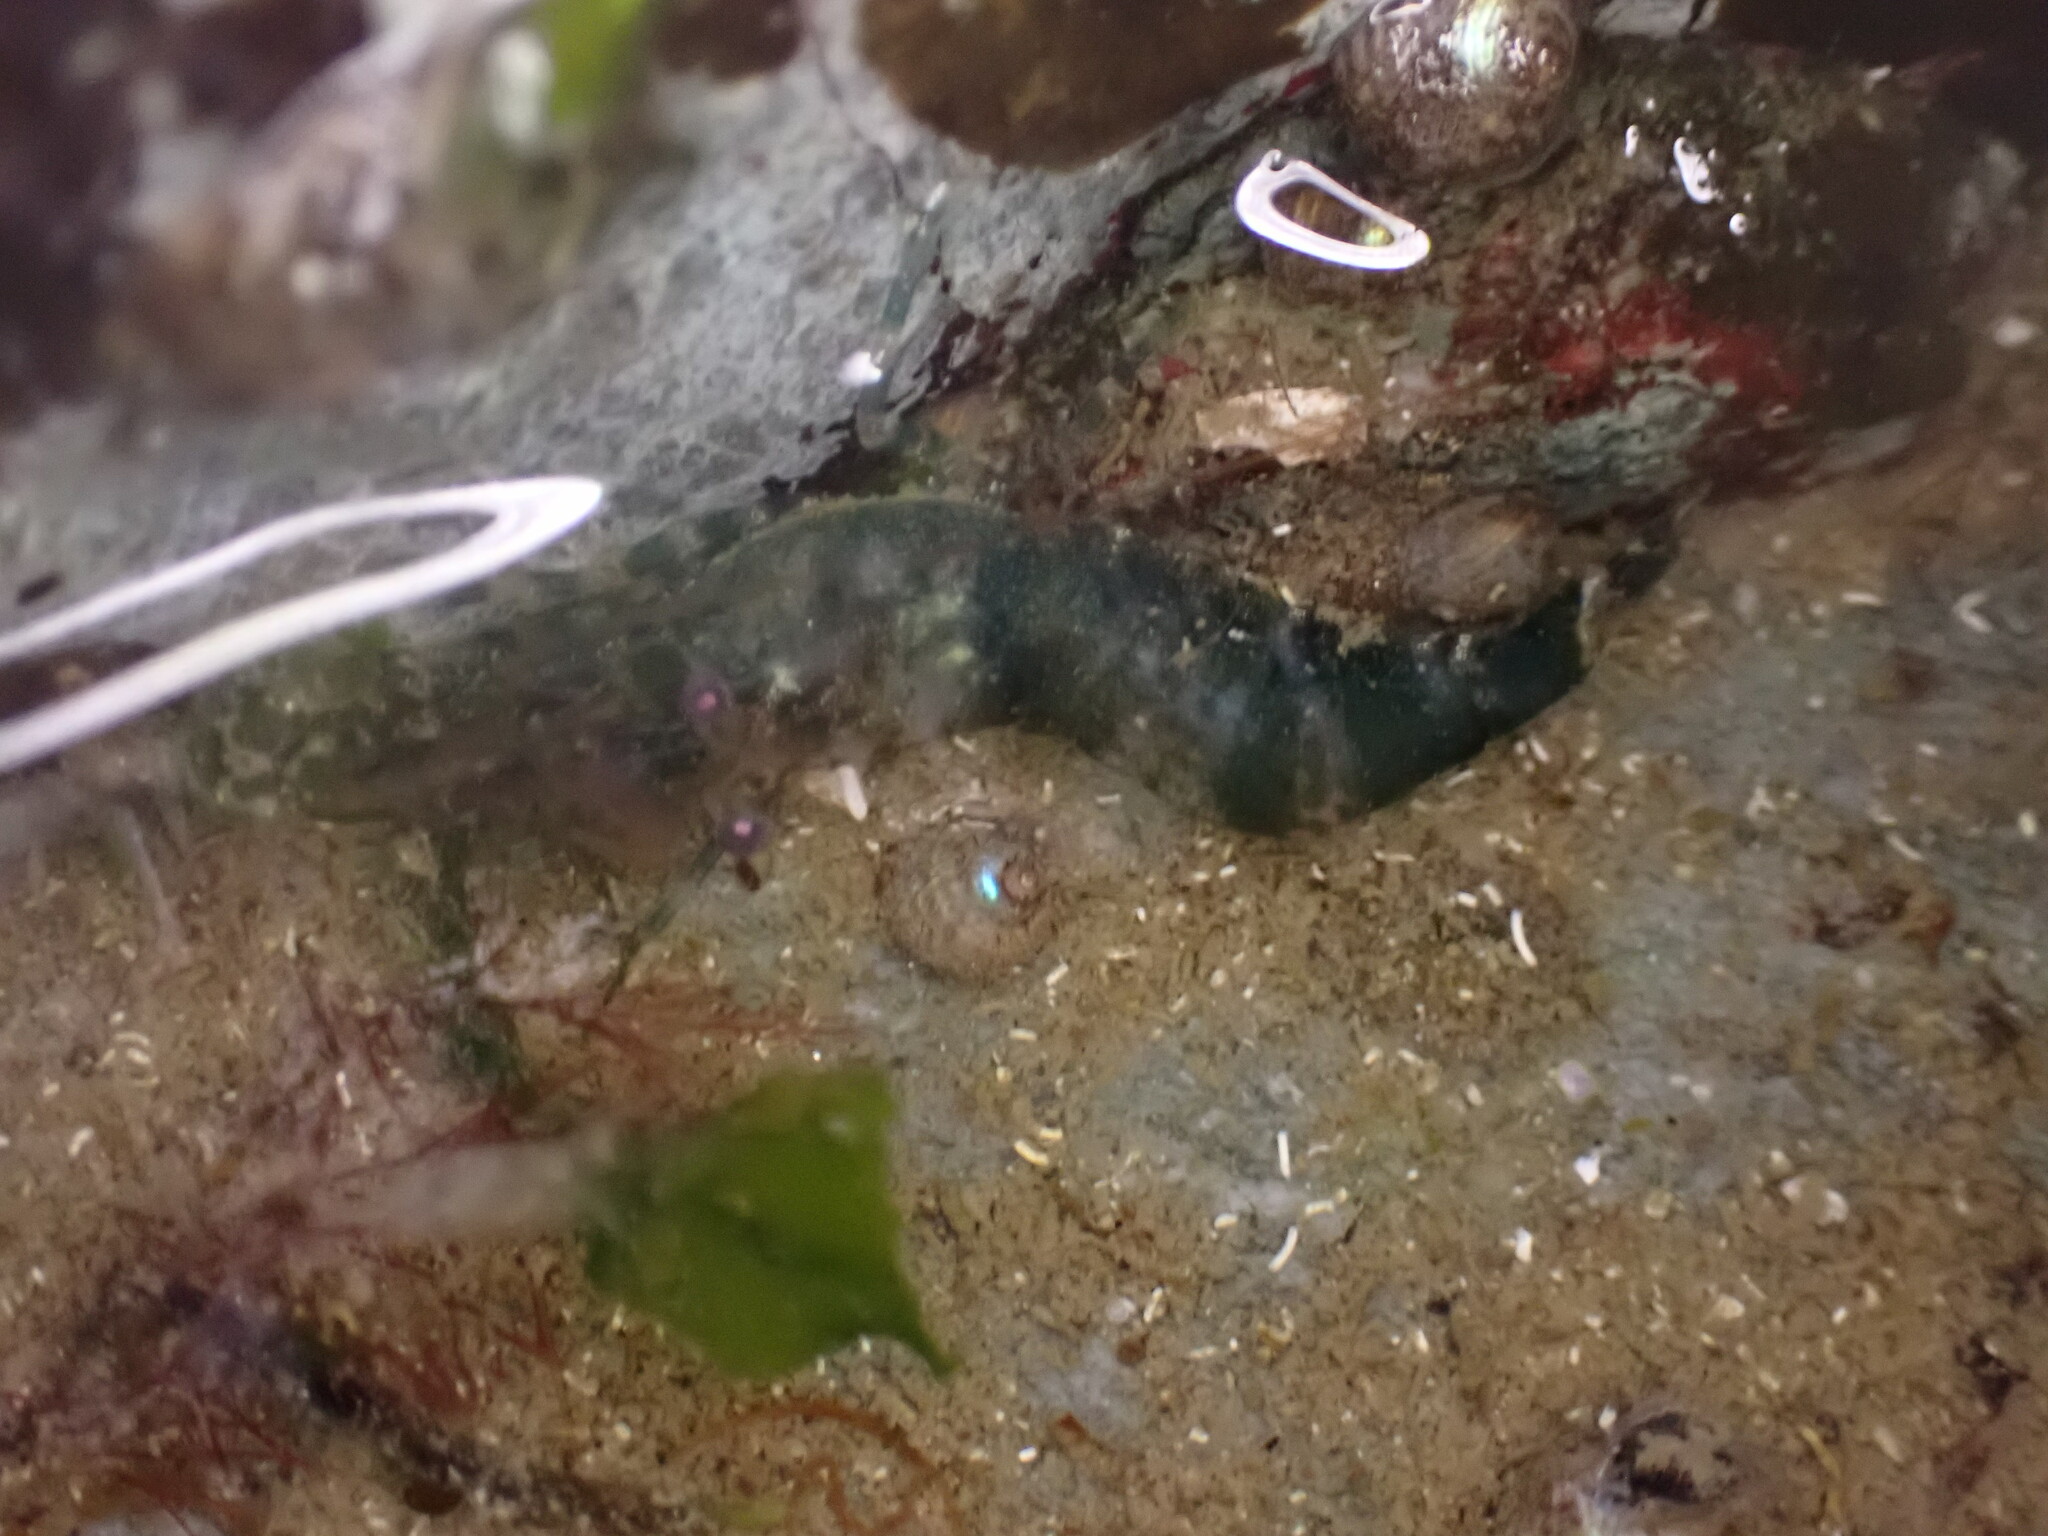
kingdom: Animalia
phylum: Arthropoda
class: Malacostraca
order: Decapoda
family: Thoridae
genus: Heptacarpus
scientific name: Heptacarpus brevirostris
